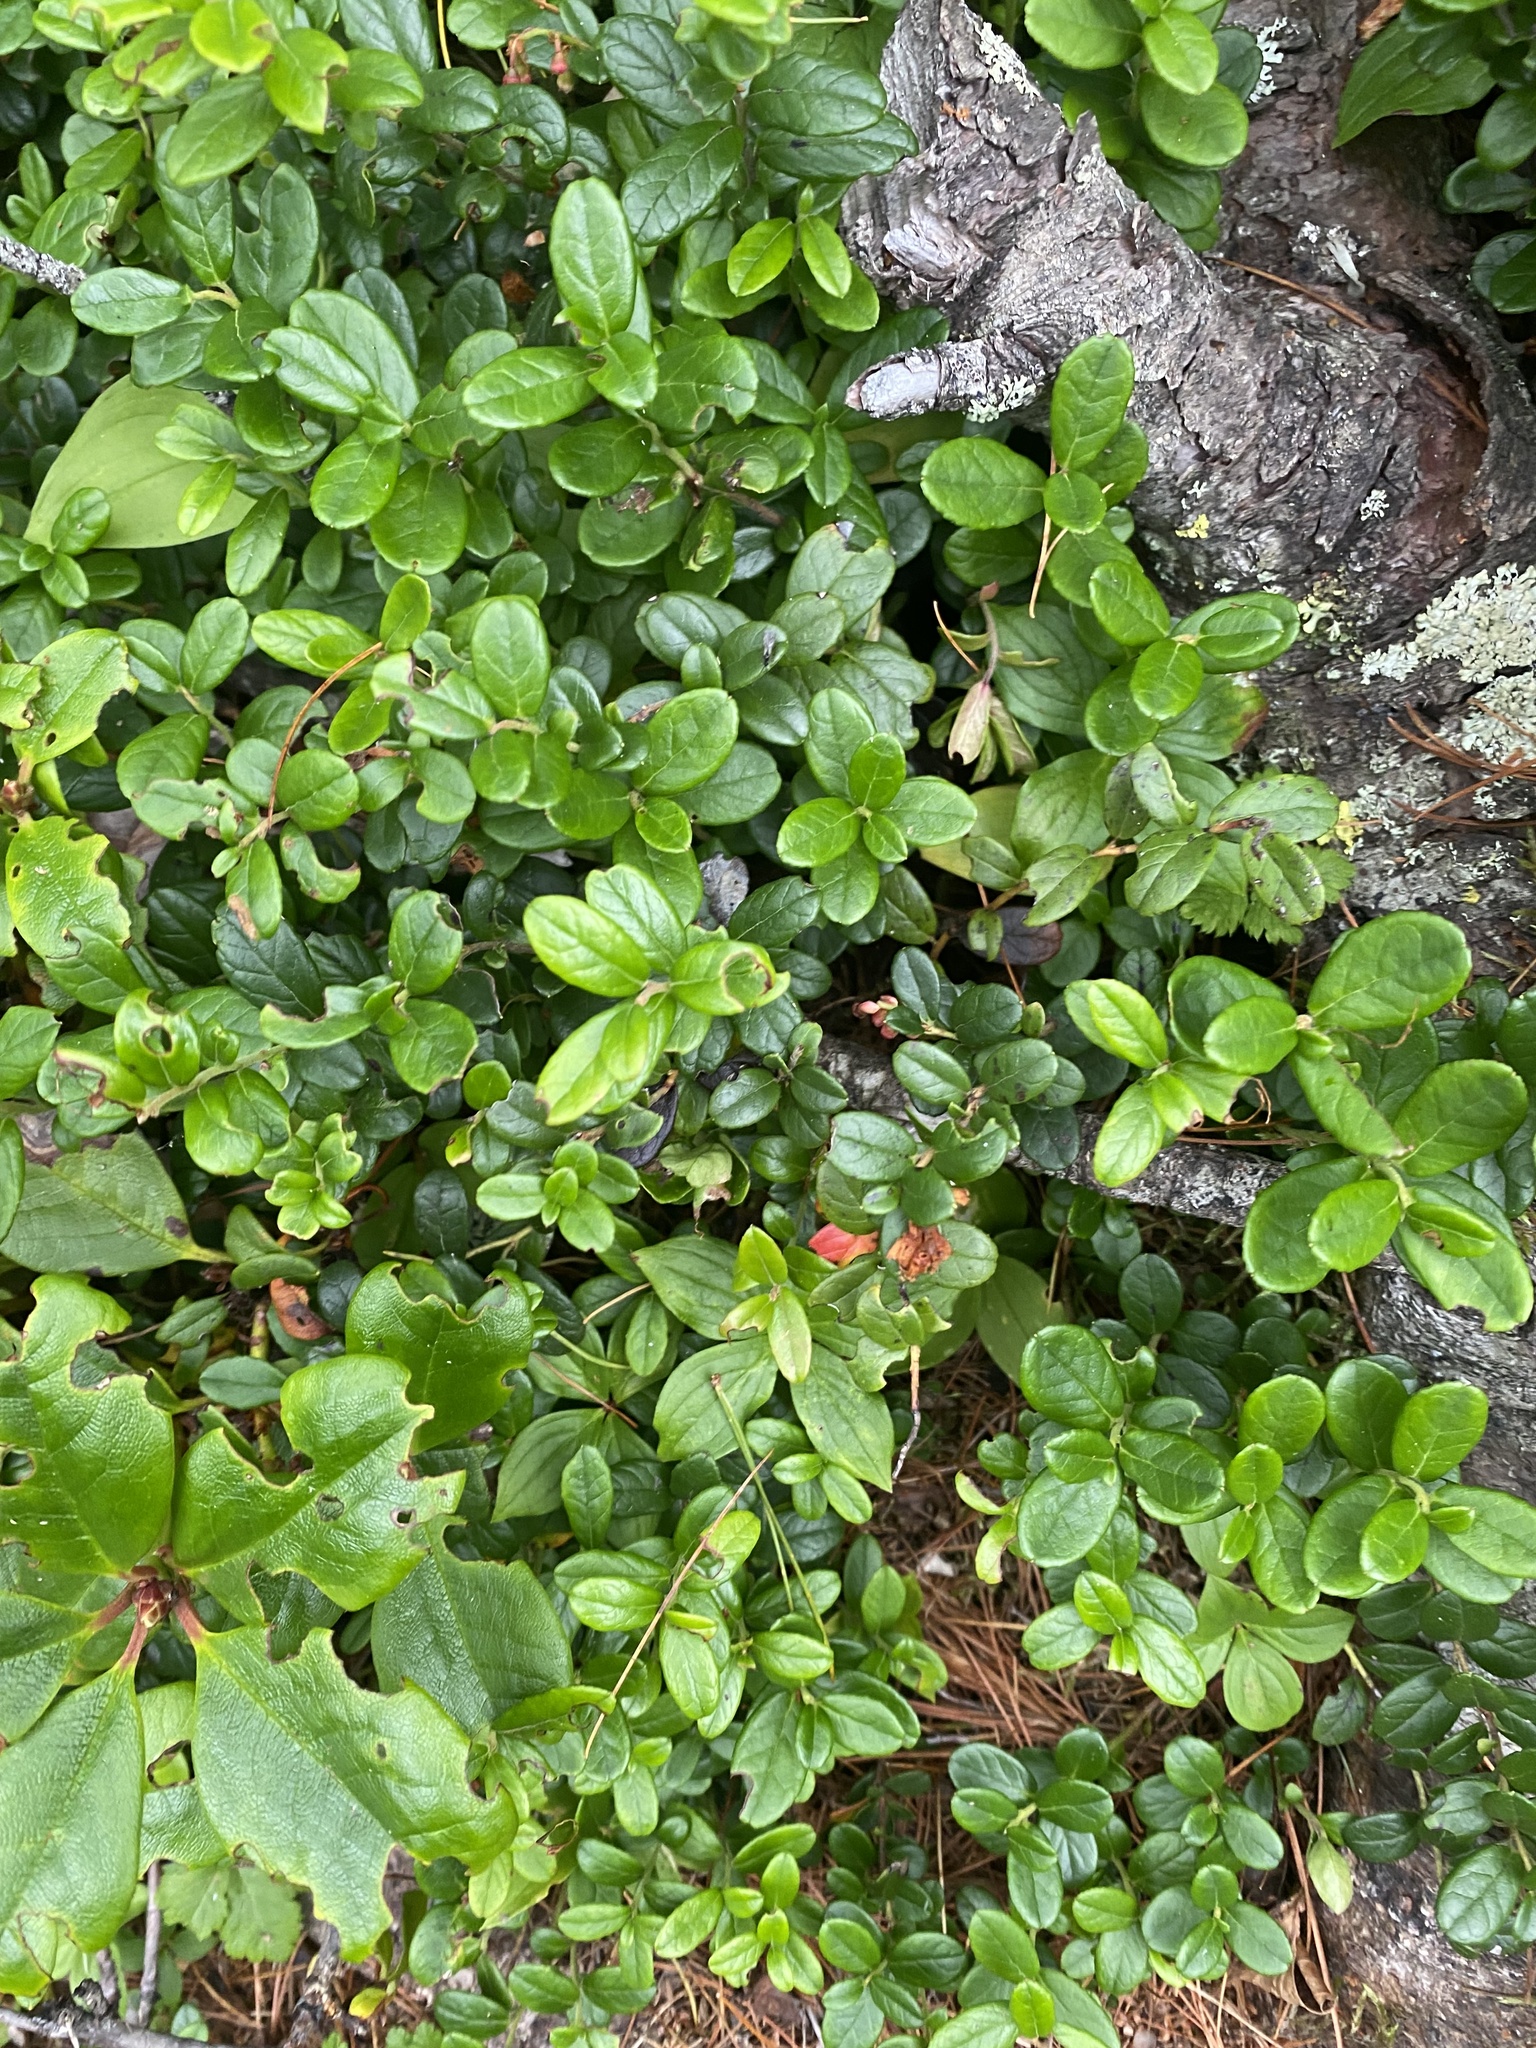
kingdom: Plantae
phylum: Tracheophyta
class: Magnoliopsida
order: Ericales
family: Ericaceae
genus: Vaccinium
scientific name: Vaccinium vitis-idaea
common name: Cowberry
